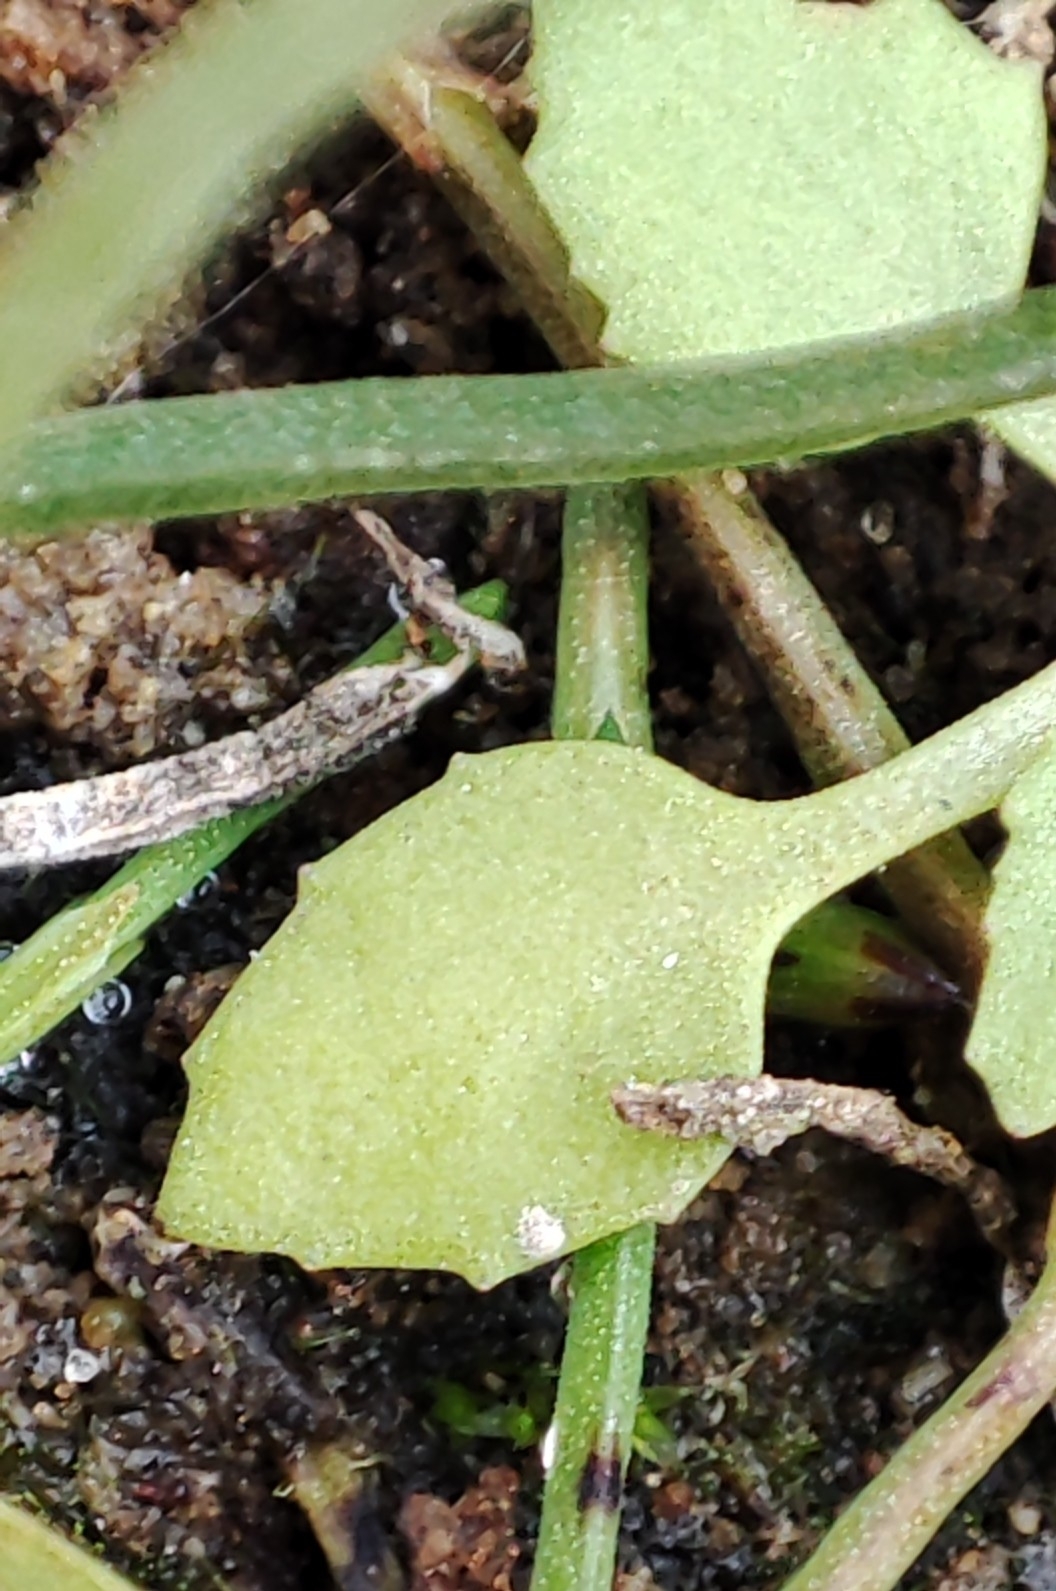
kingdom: Plantae
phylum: Tracheophyta
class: Magnoliopsida
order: Ericales
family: Primulaceae
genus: Androsace
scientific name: Androsace filiformis
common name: Filiform rock jasmine
